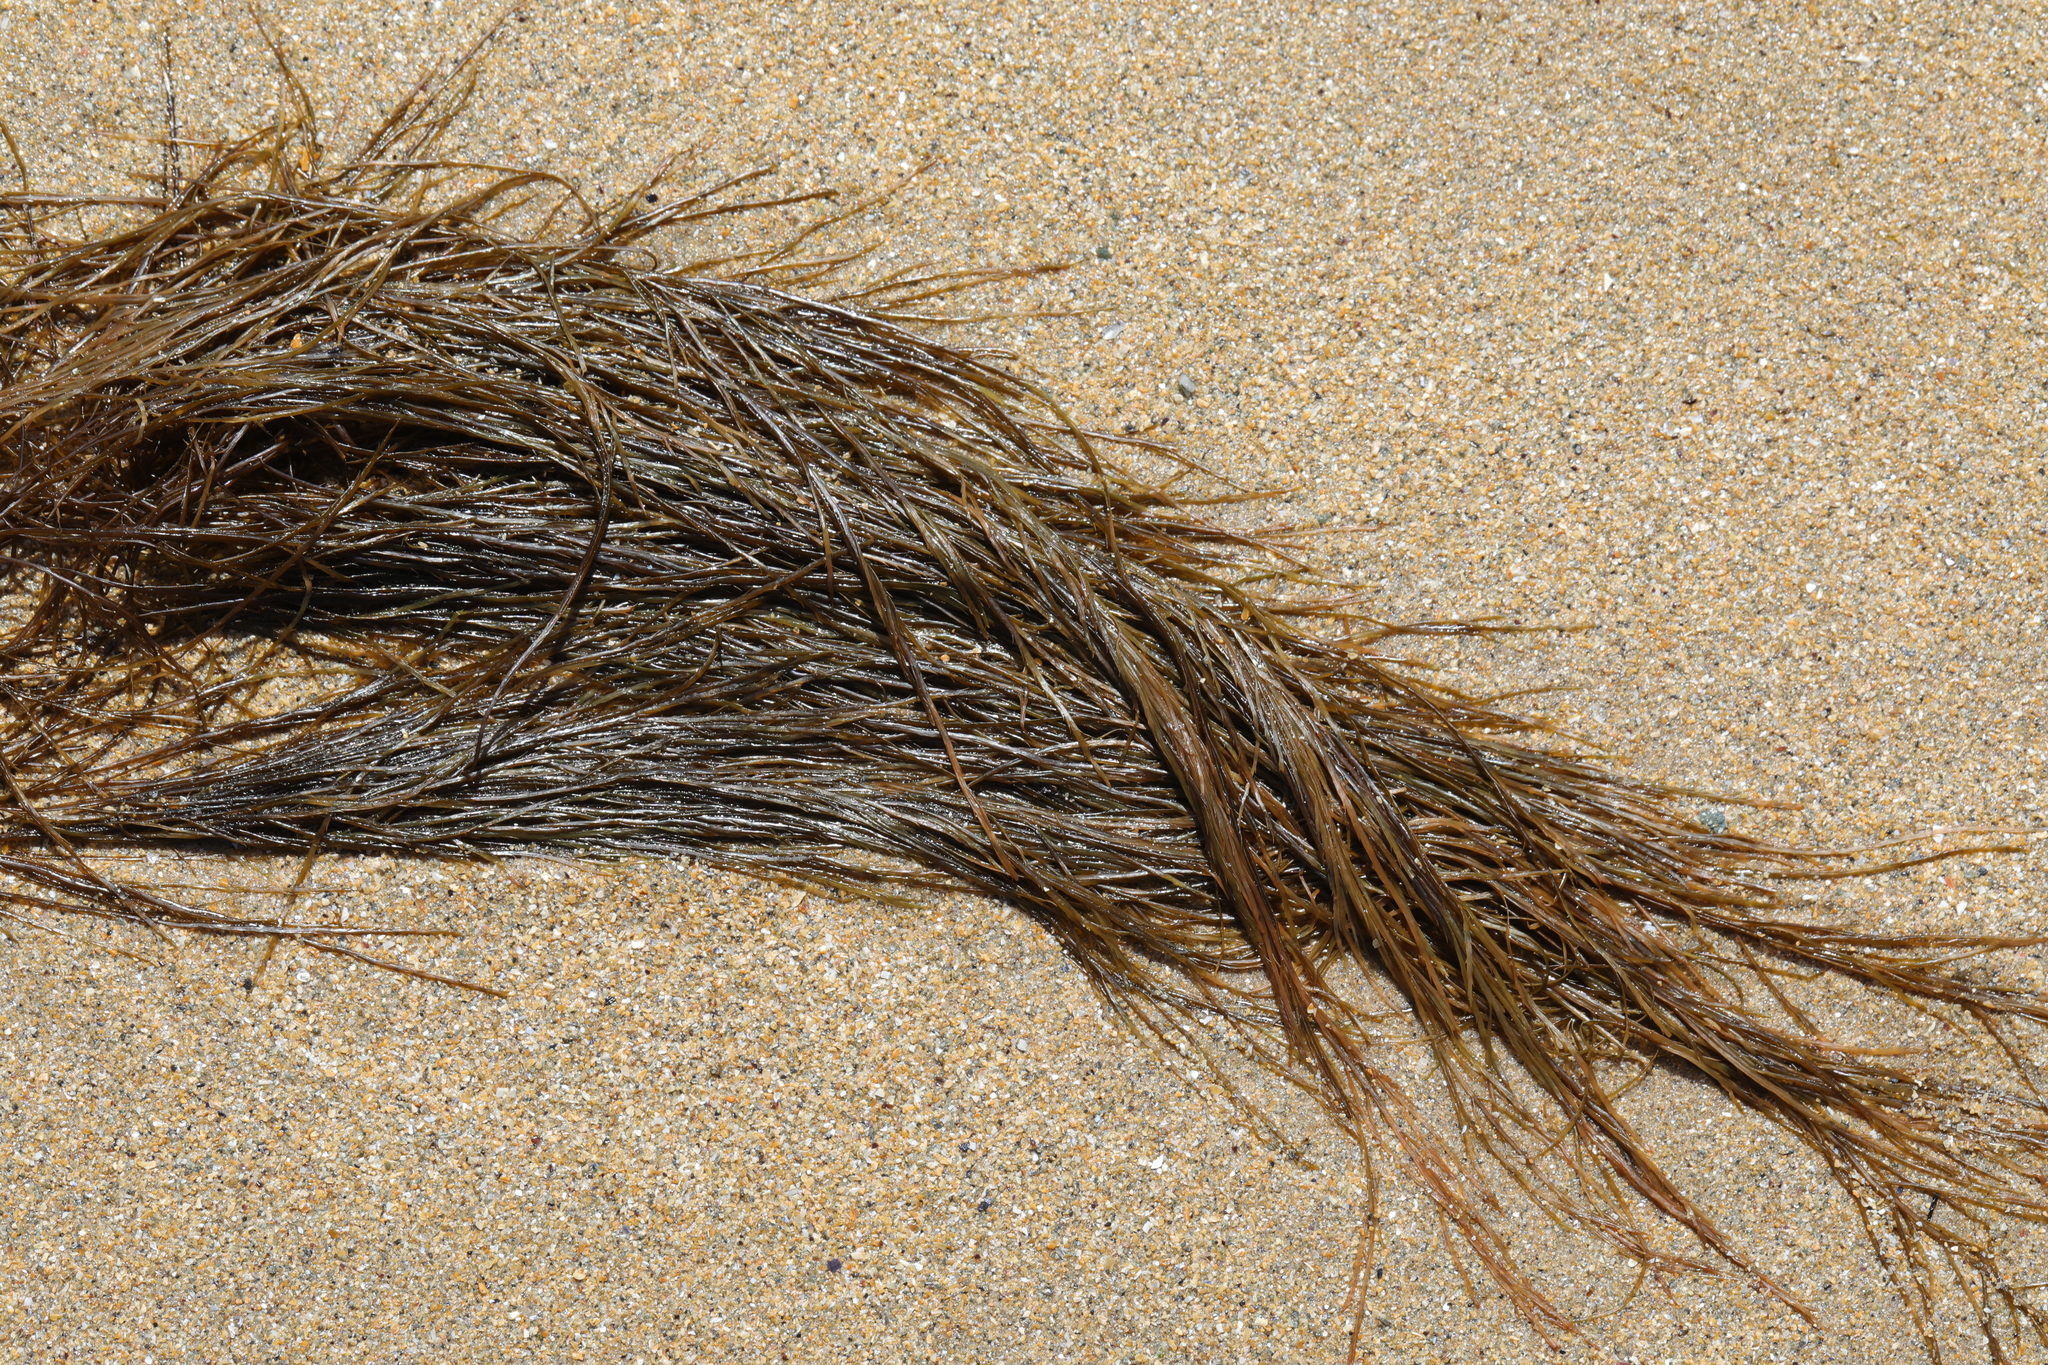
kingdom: Chromista
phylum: Ochrophyta
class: Phaeophyceae
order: Desmarestiales
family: Desmarestiaceae
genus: Desmarestia
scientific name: Desmarestia aculeata
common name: Witch's hair
